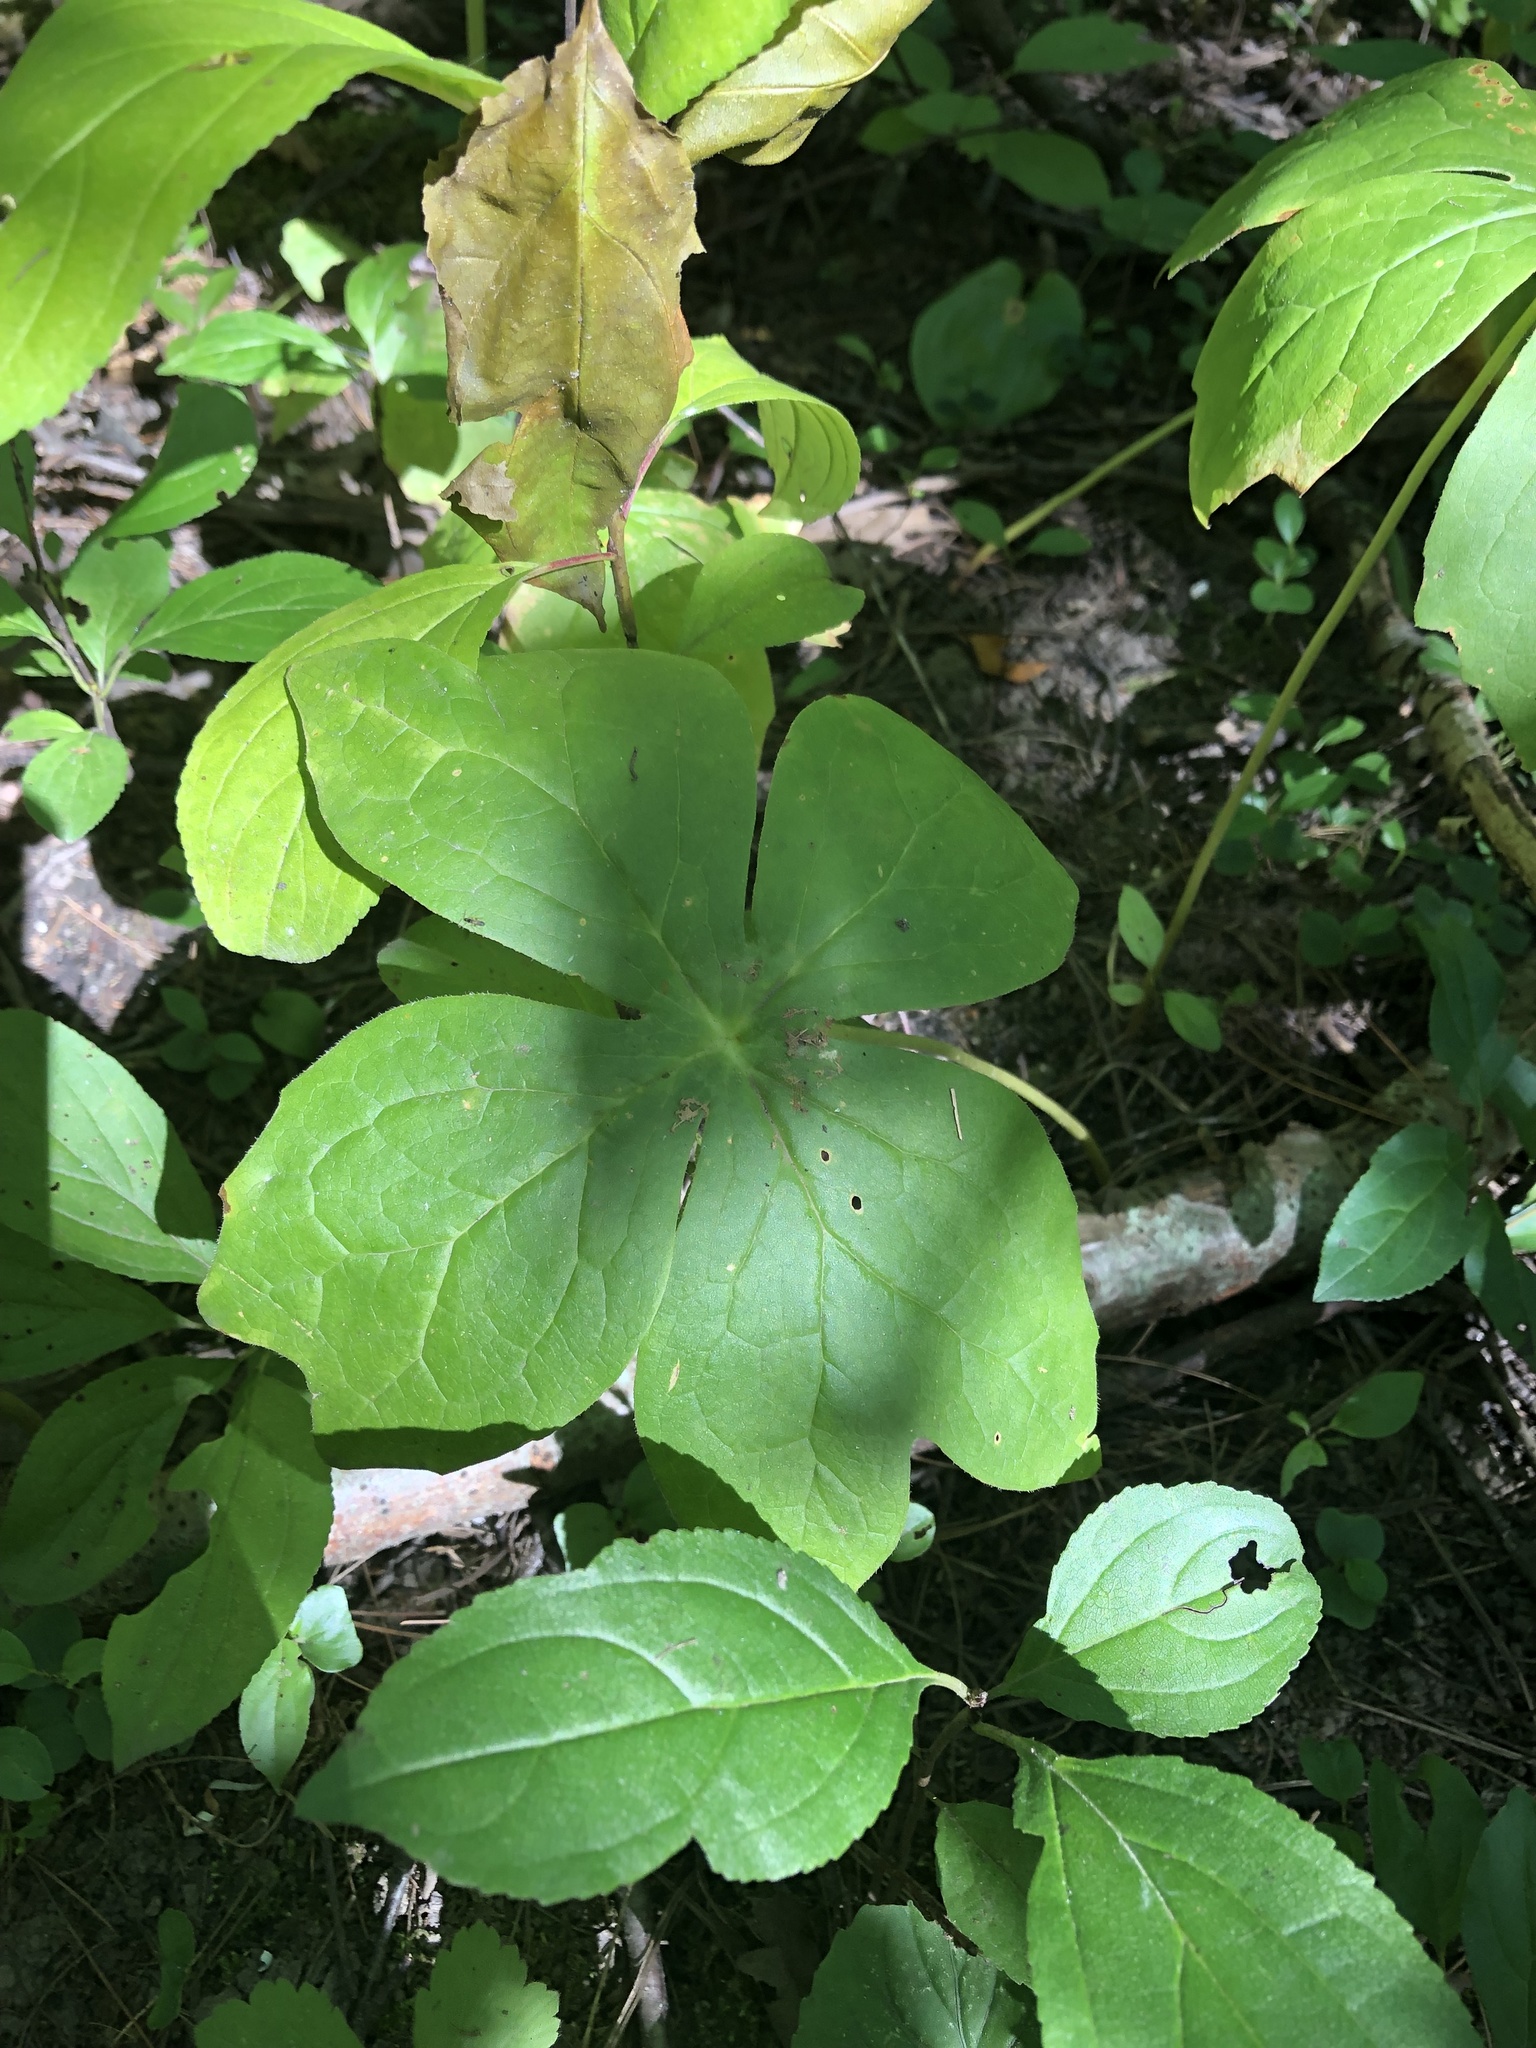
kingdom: Plantae
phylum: Tracheophyta
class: Magnoliopsida
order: Ranunculales
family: Berberidaceae
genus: Podophyllum
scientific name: Podophyllum peltatum
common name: Wild mandrake
